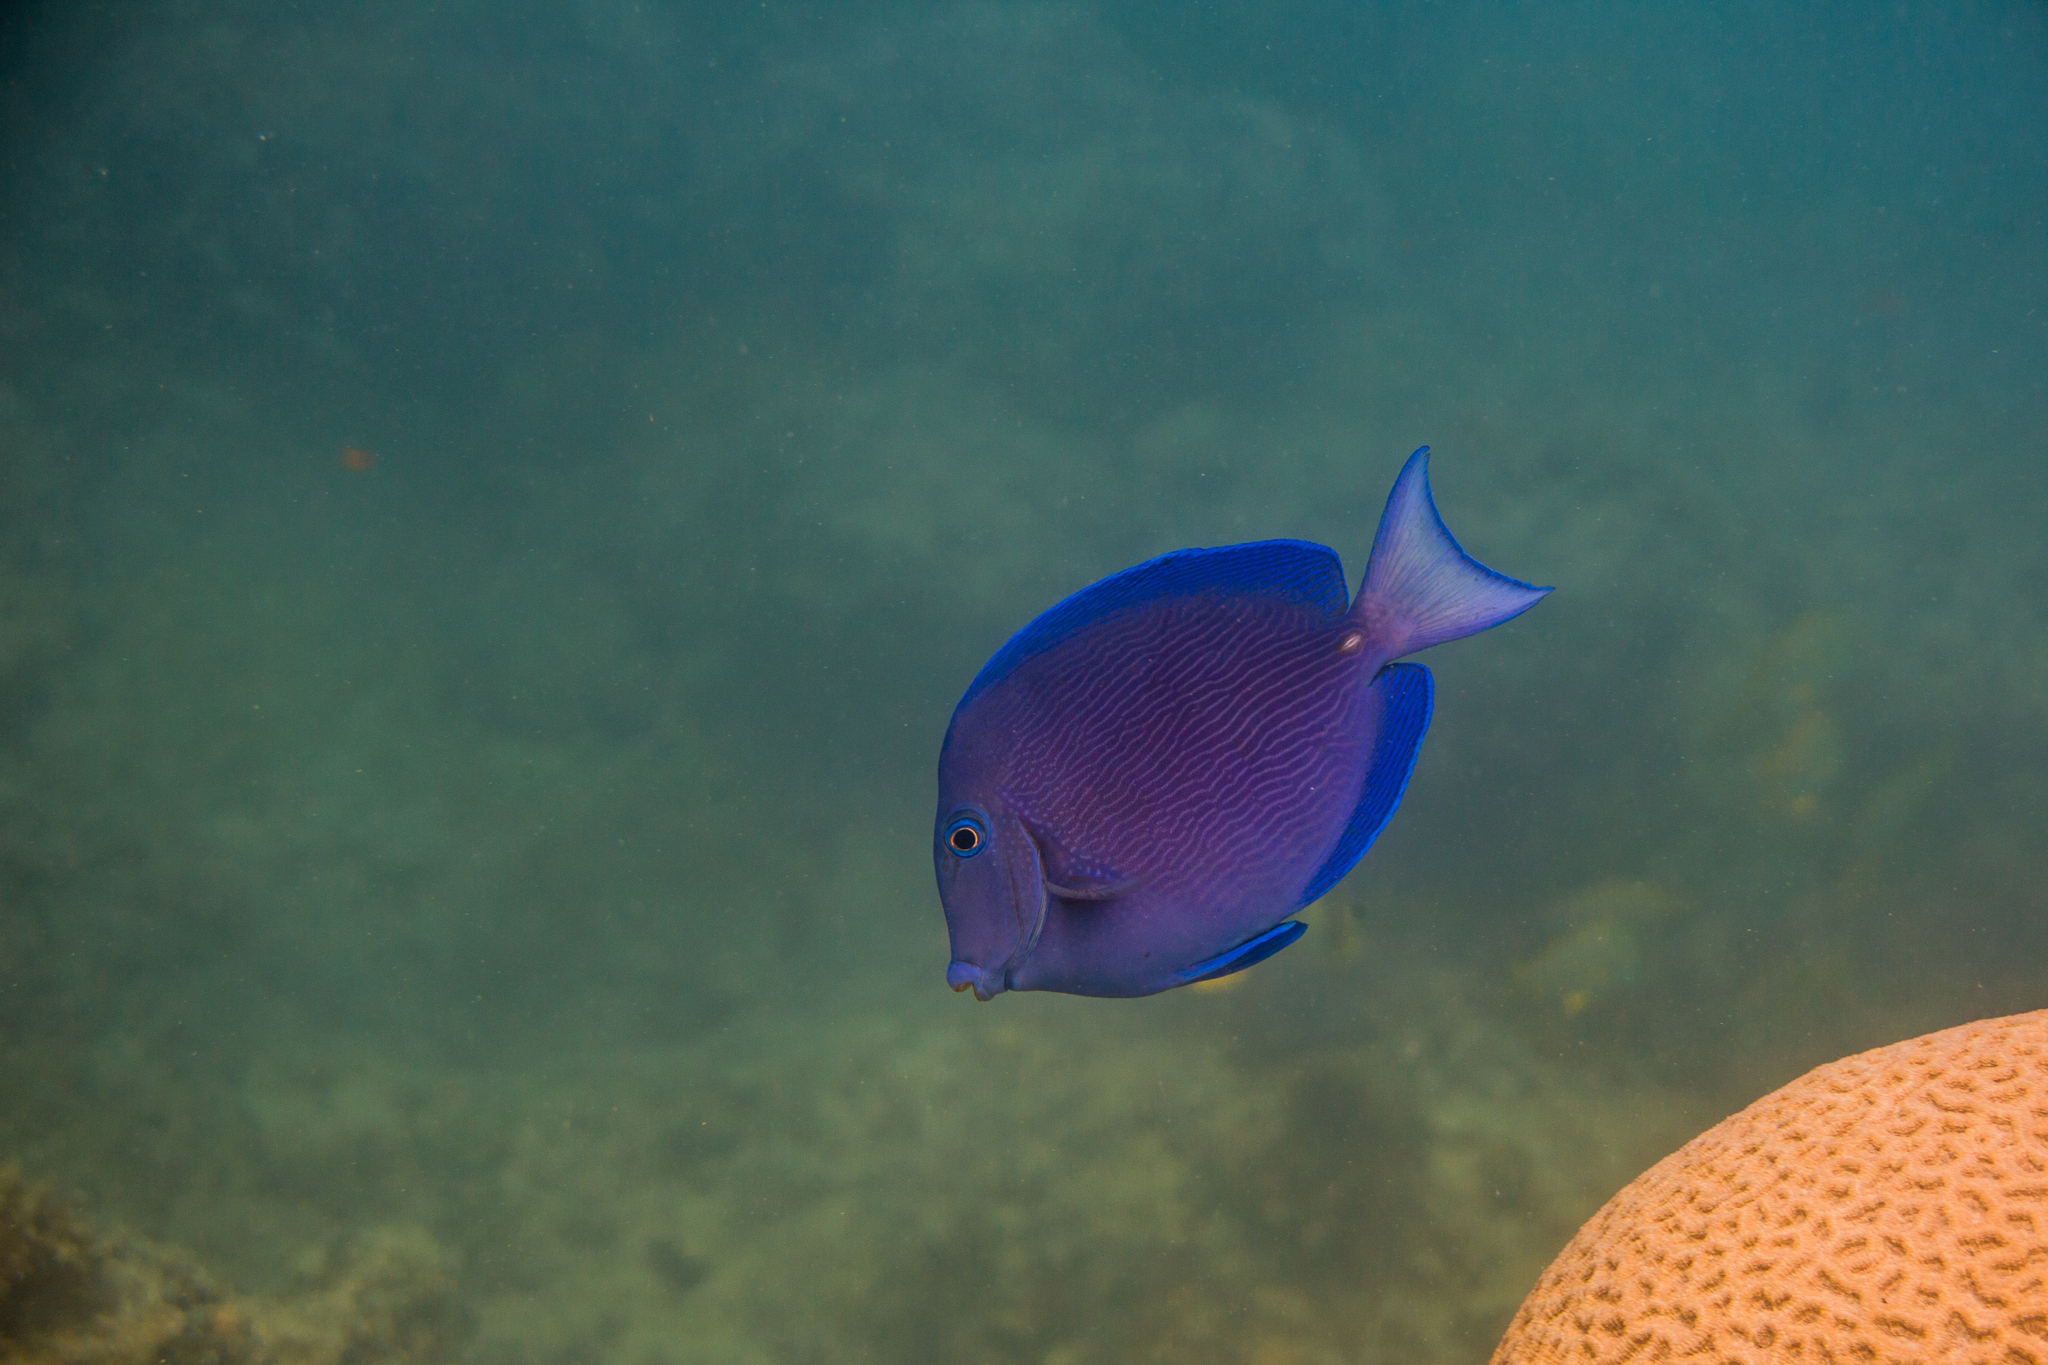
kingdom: Animalia
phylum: Chordata
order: Perciformes
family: Acanthuridae
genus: Acanthurus
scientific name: Acanthurus coeruleus
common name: Blue tang
